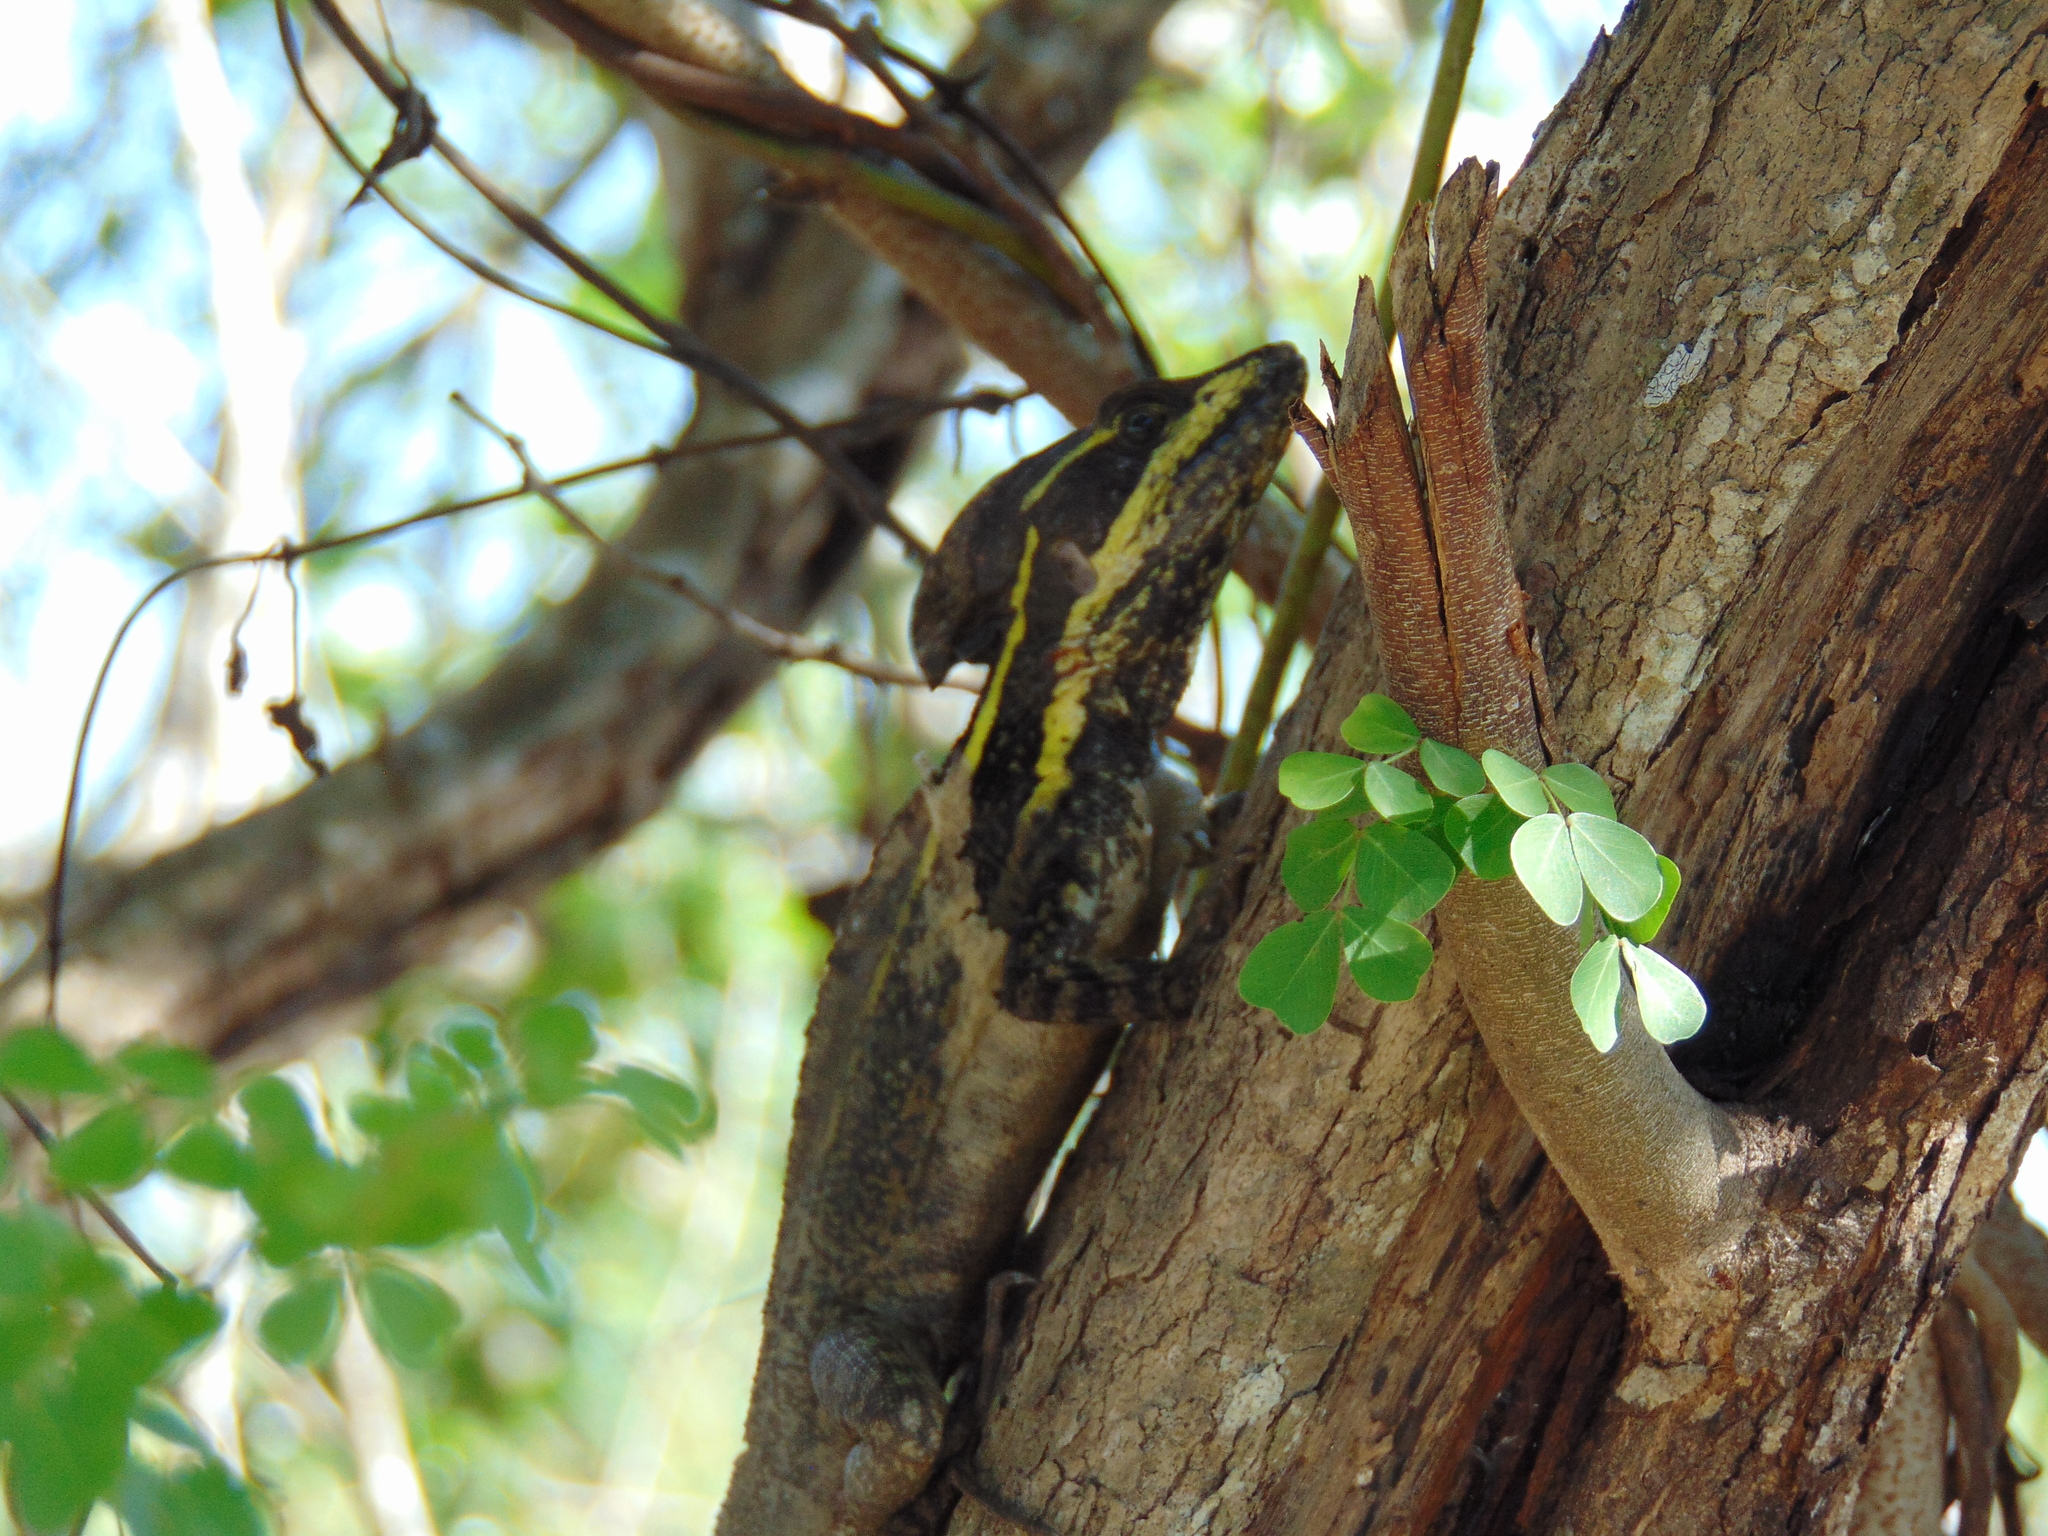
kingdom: Animalia
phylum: Chordata
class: Squamata
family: Corytophanidae
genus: Basiliscus
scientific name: Basiliscus vittatus
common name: Brown basilisk
